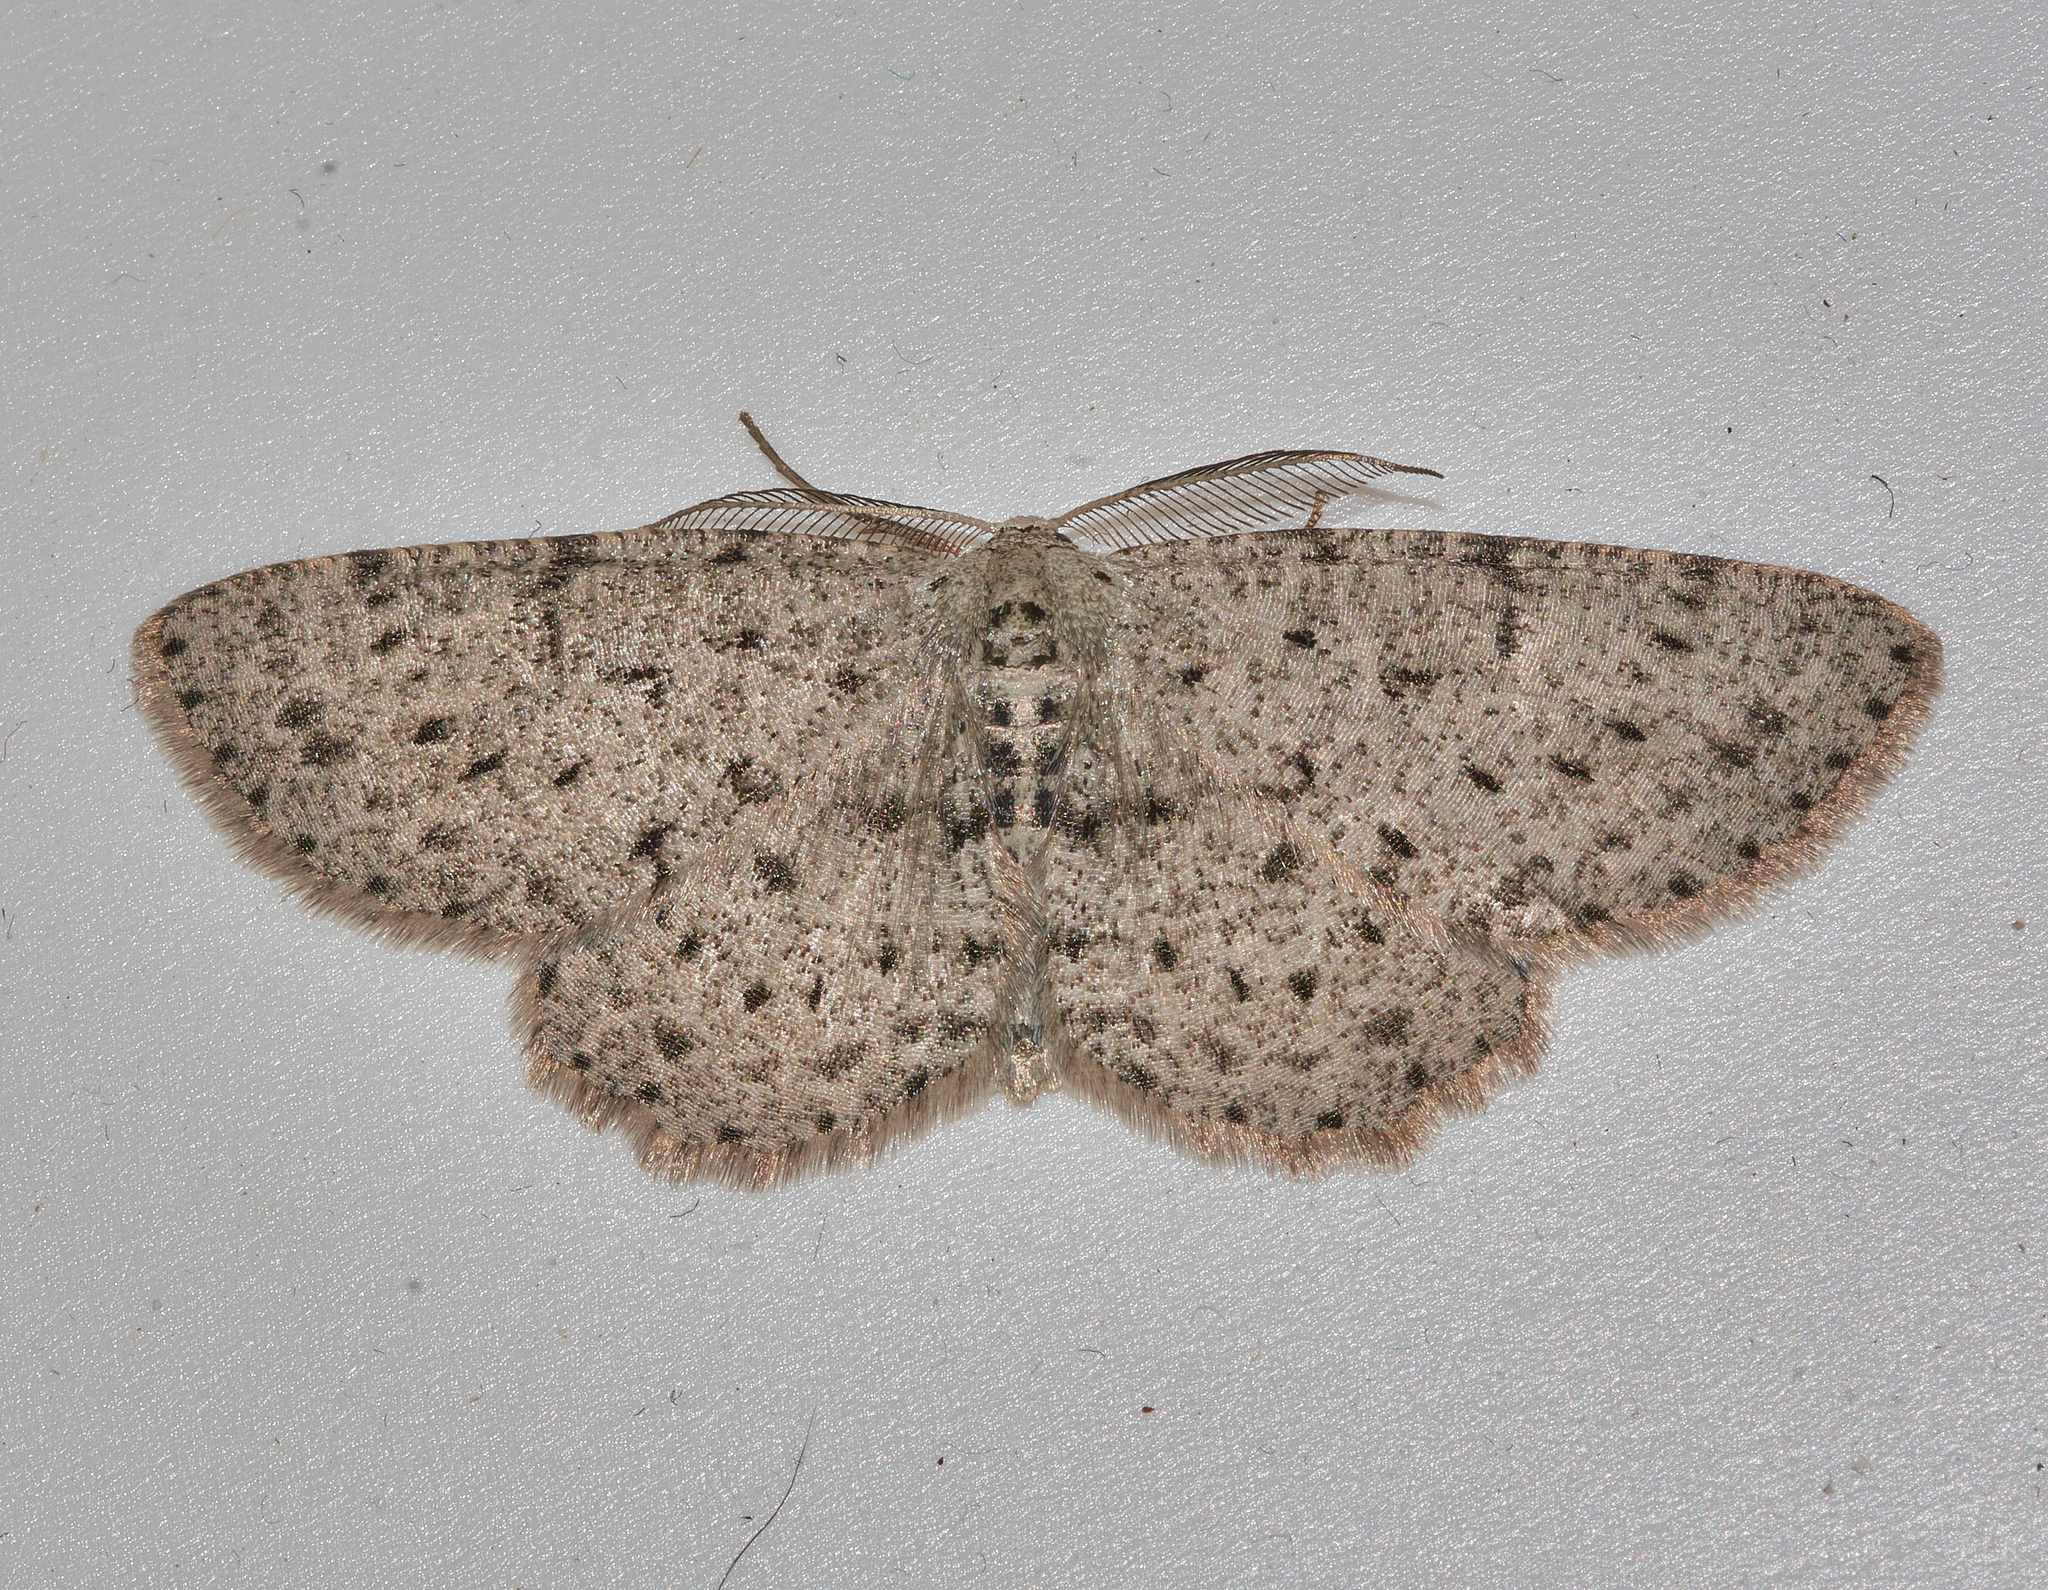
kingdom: Animalia
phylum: Arthropoda
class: Insecta
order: Lepidoptera
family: Geometridae
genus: Glena
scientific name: Glena cribrataria
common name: Dotted gray
